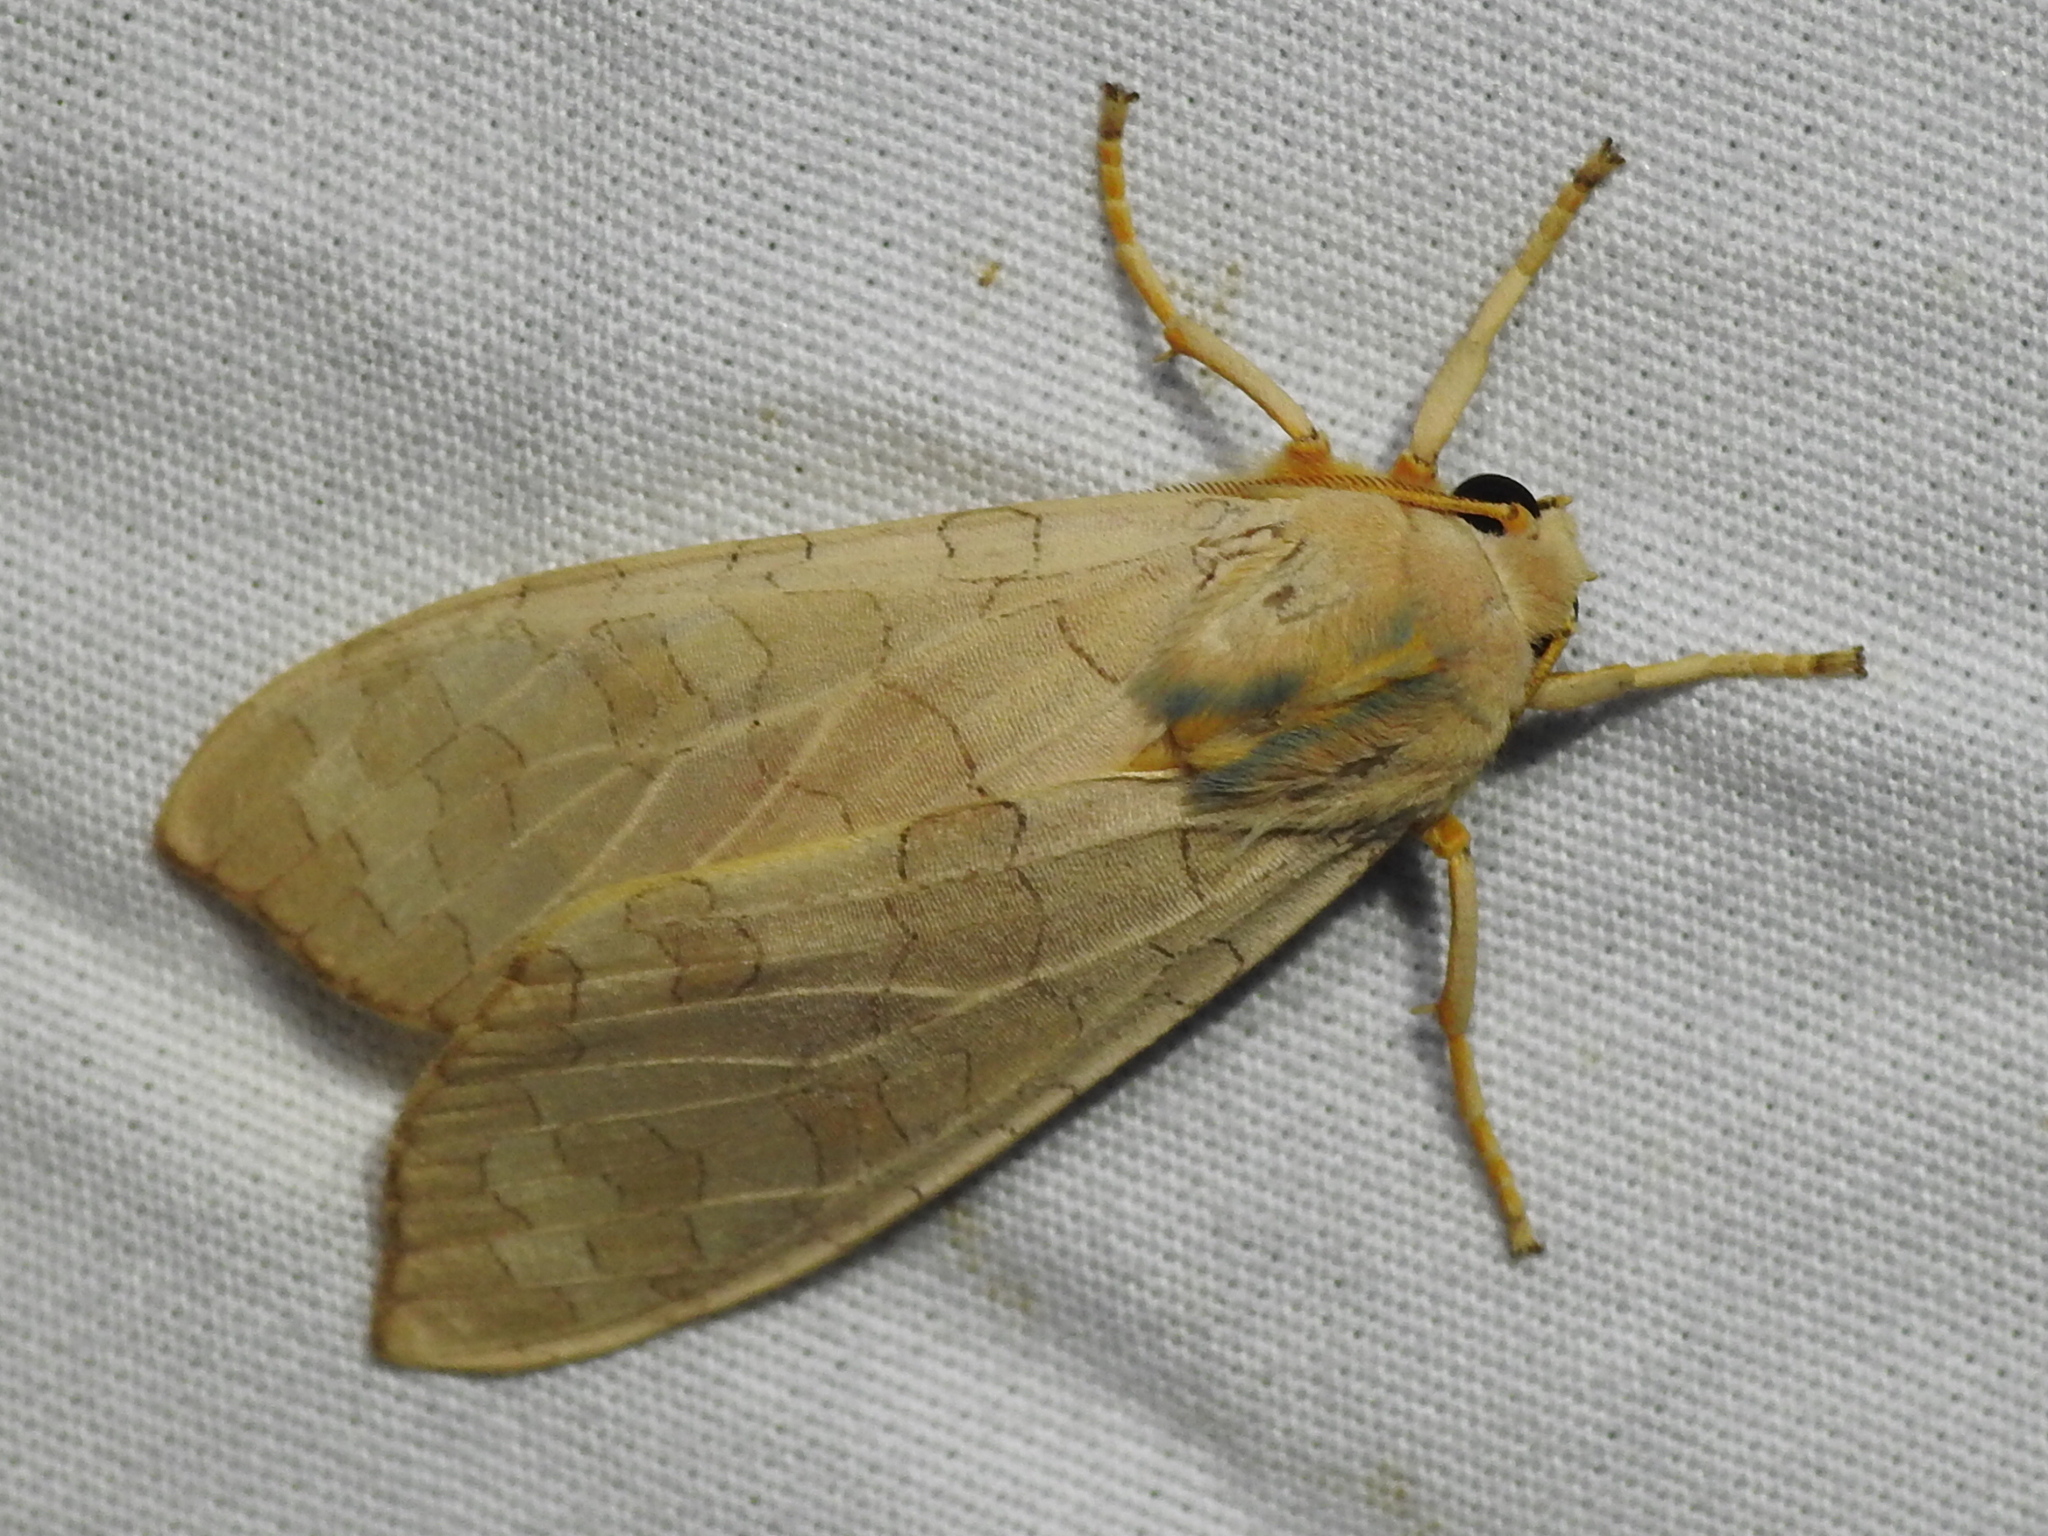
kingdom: Animalia
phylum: Arthropoda
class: Insecta
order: Lepidoptera
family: Erebidae
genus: Halysidota
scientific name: Halysidota
